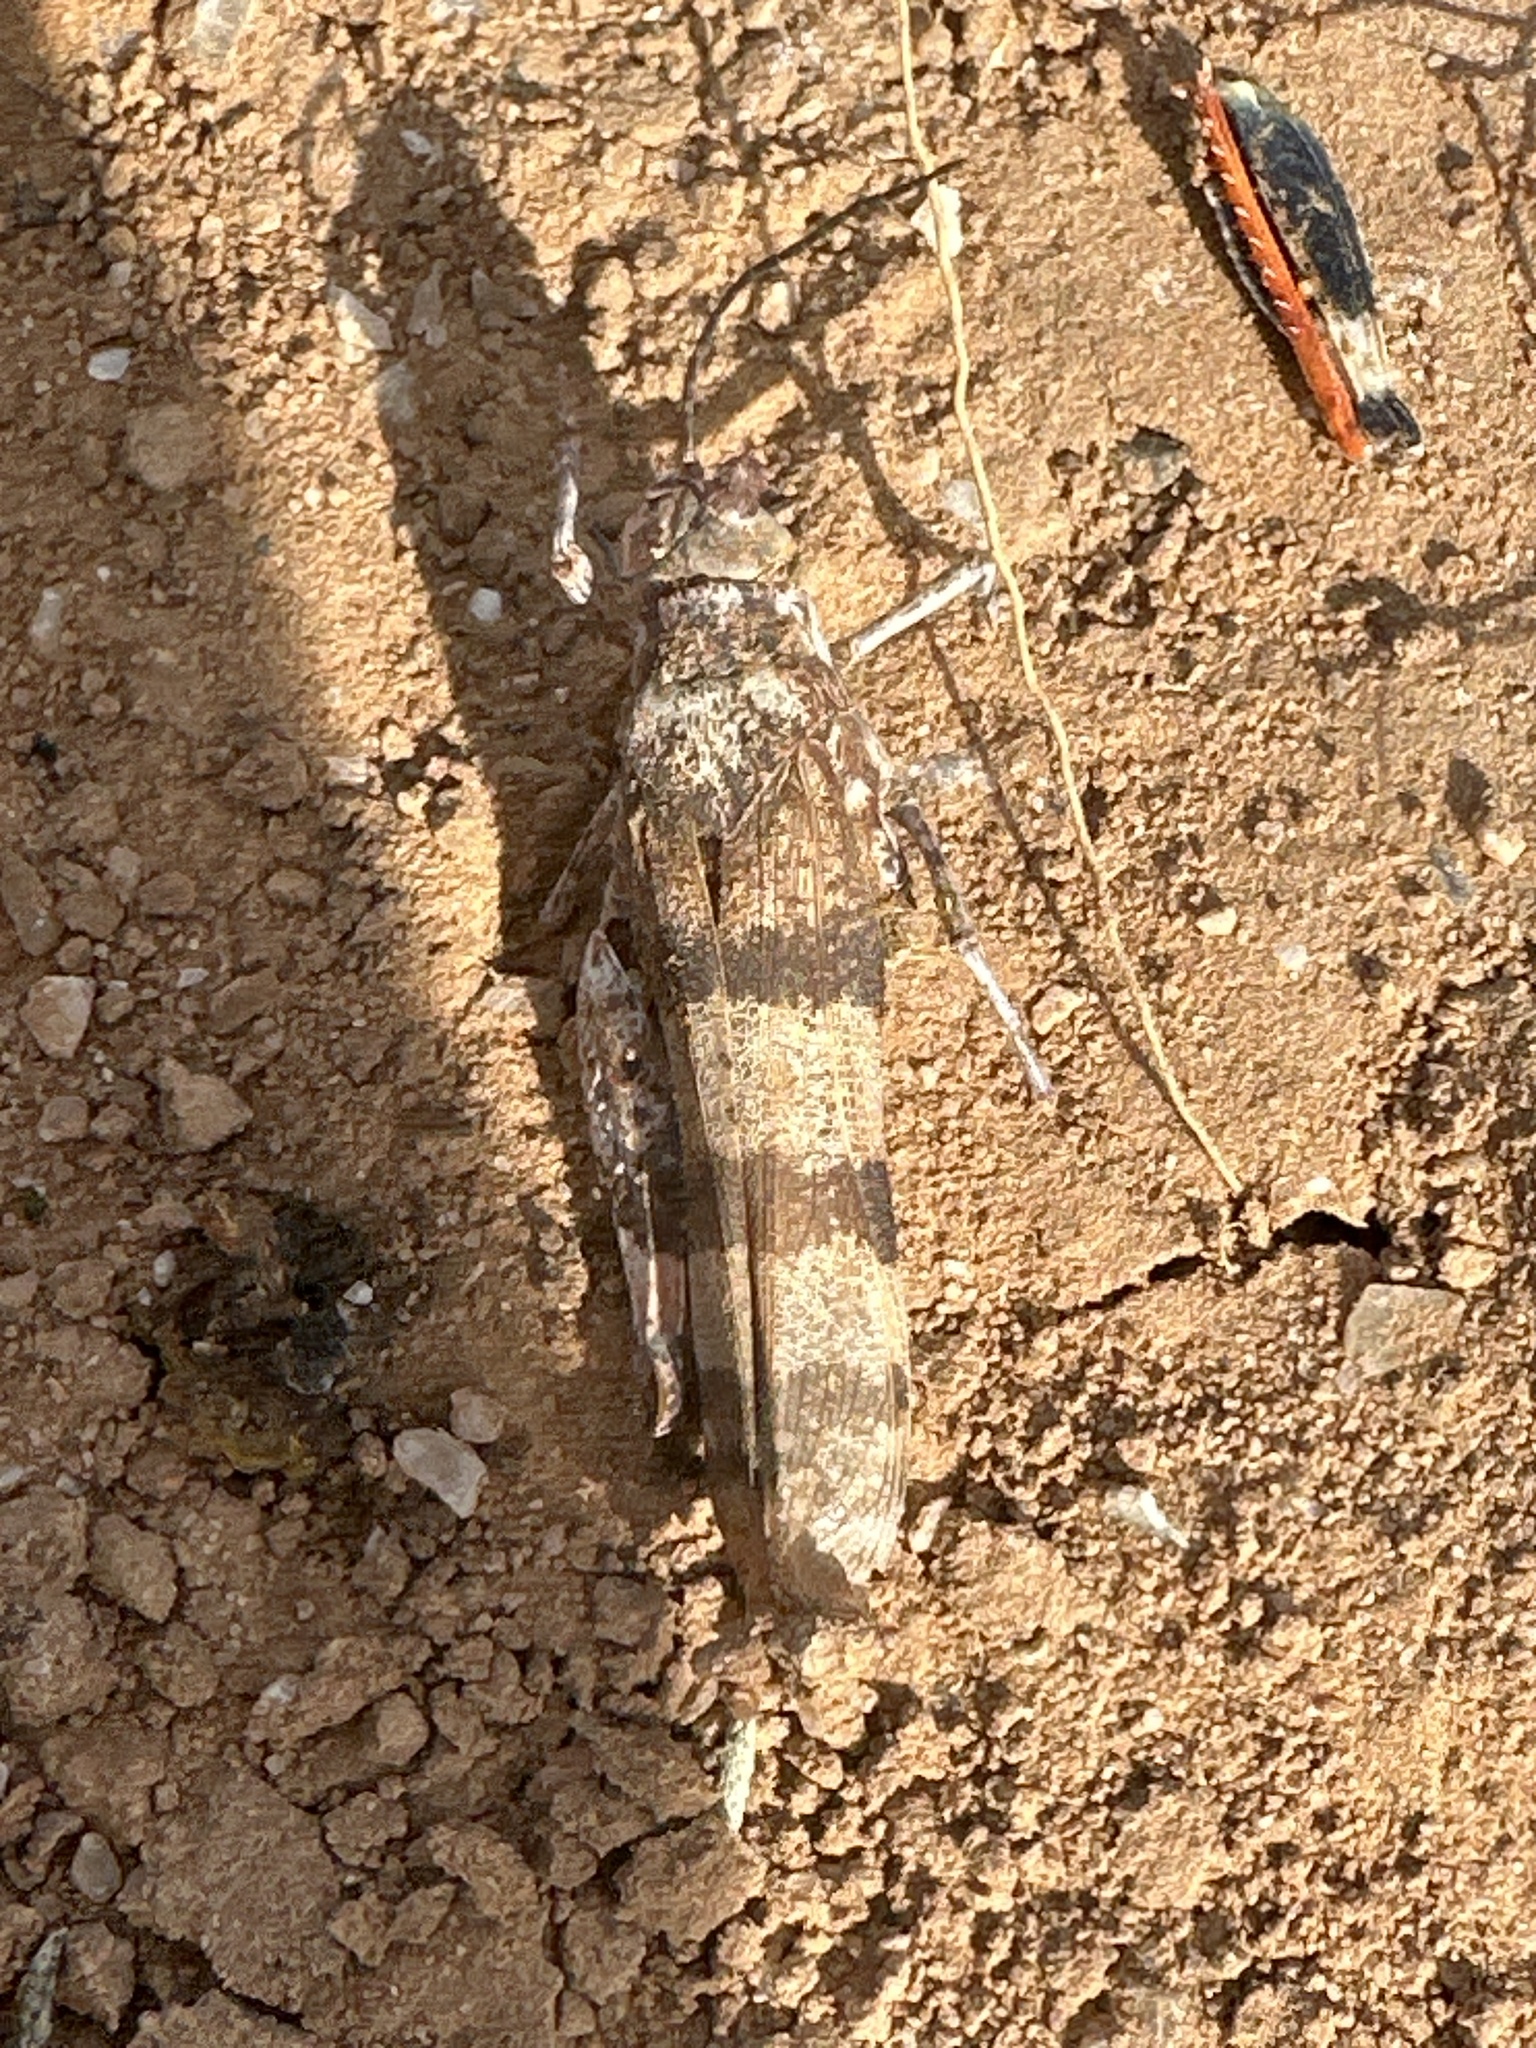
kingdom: Animalia
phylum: Arthropoda
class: Insecta
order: Orthoptera
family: Acrididae
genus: Hadrotettix
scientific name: Hadrotettix trifasciatus
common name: Threebanded grasshopper
